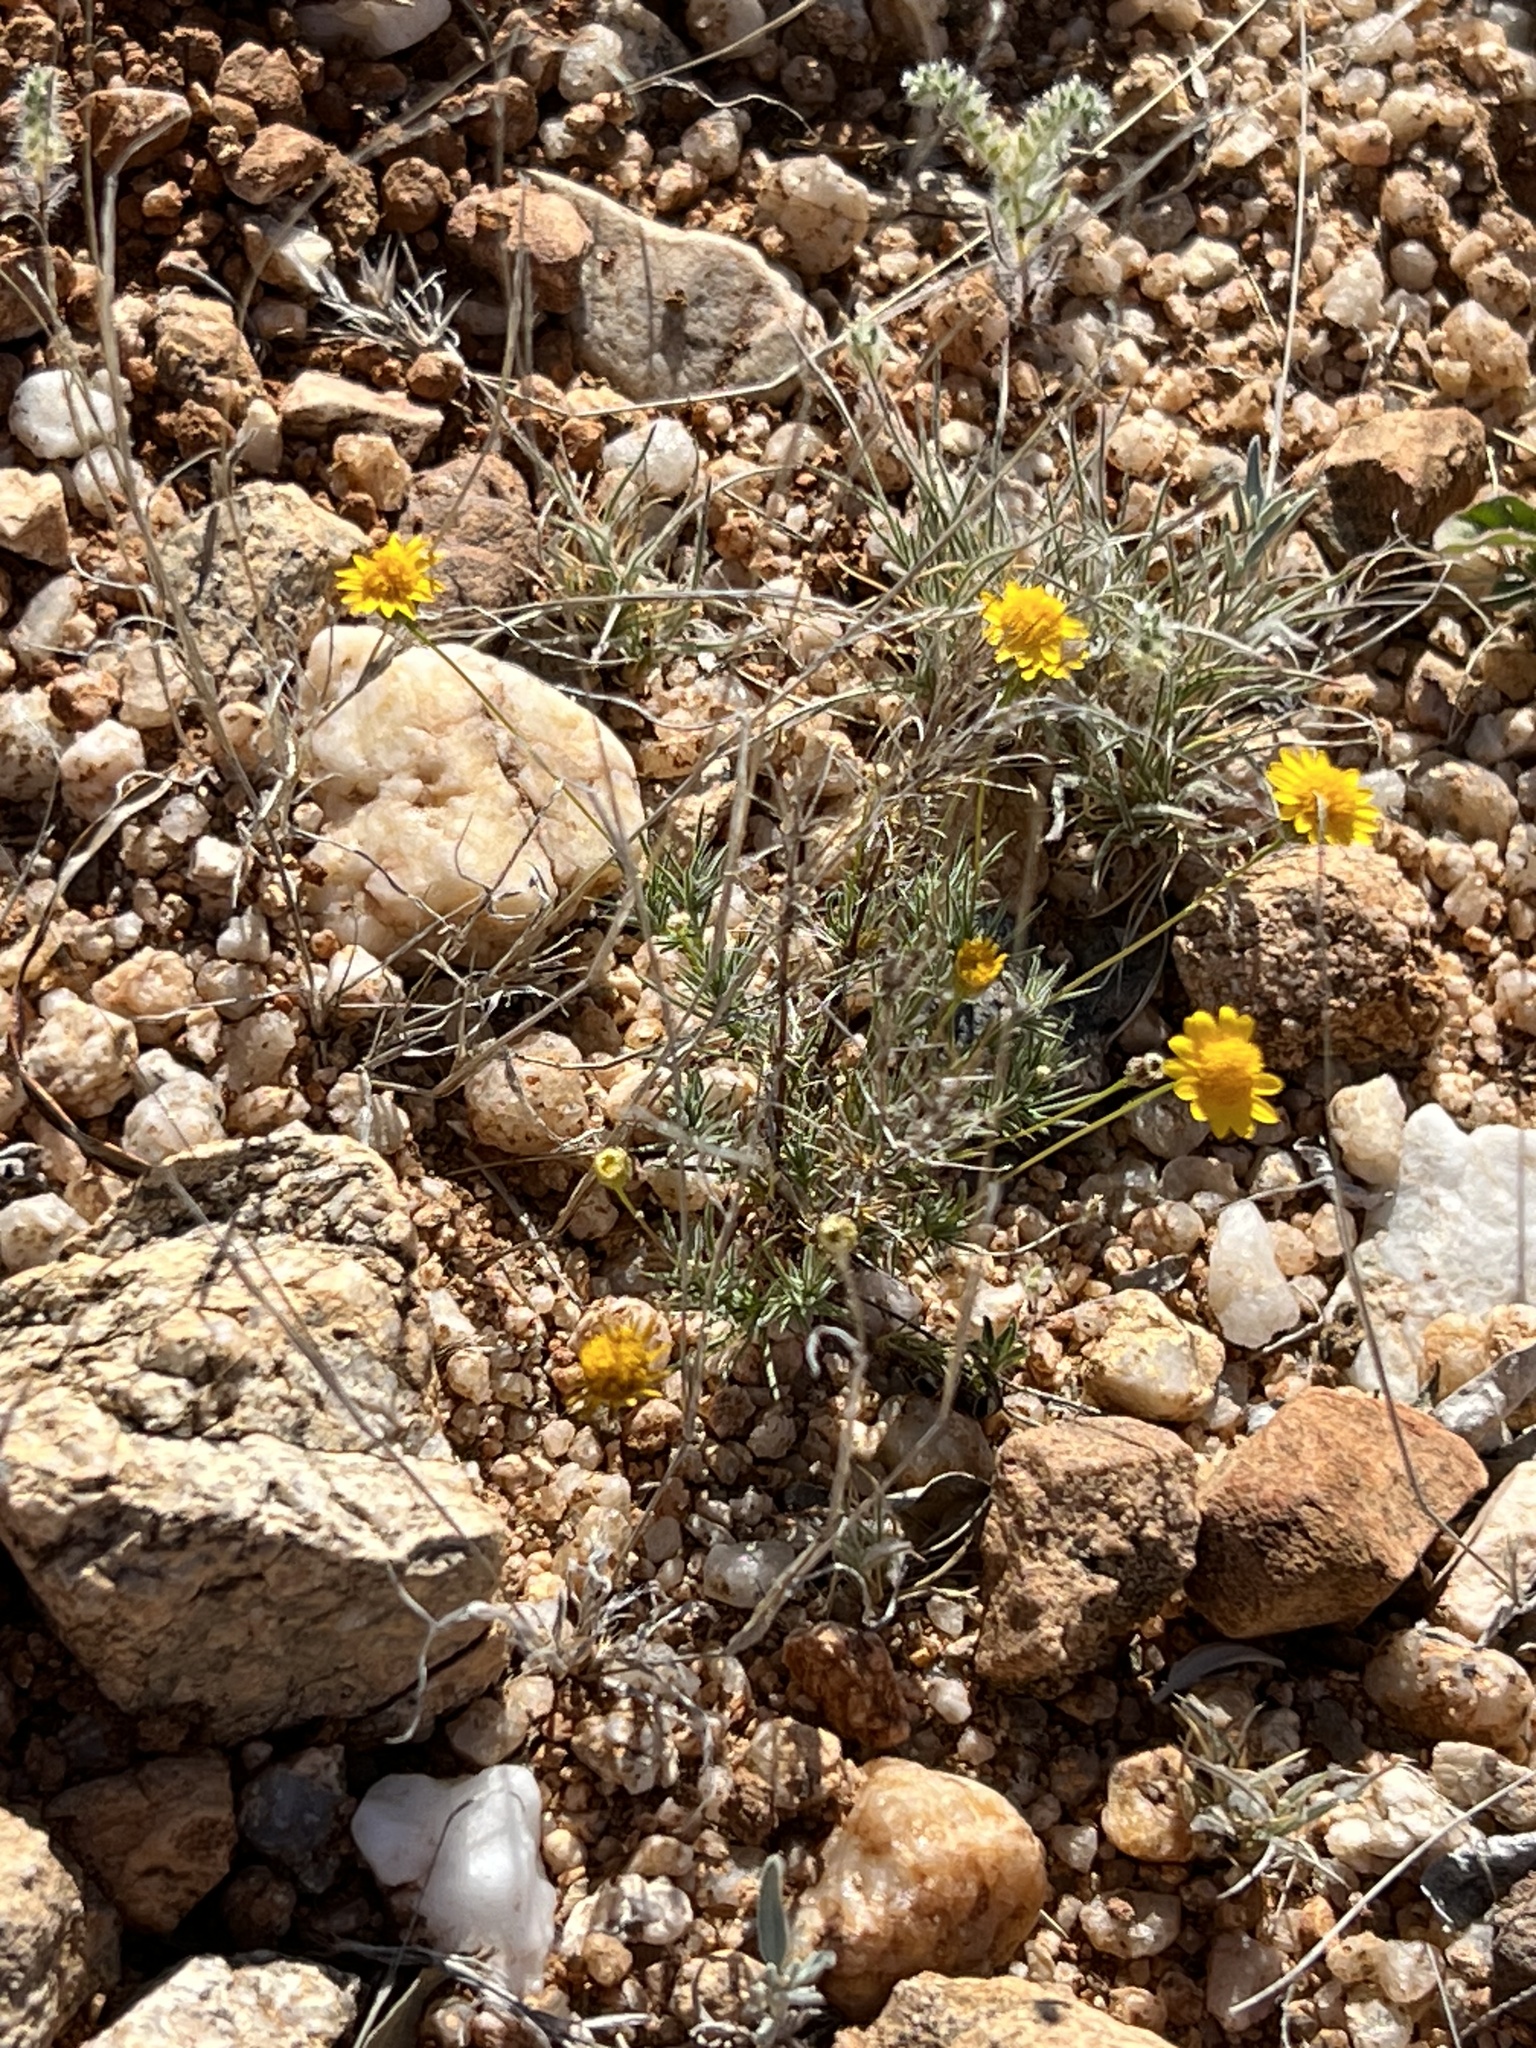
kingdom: Plantae
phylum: Tracheophyta
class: Magnoliopsida
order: Asterales
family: Asteraceae
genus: Thymophylla
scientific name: Thymophylla pentachaeta
